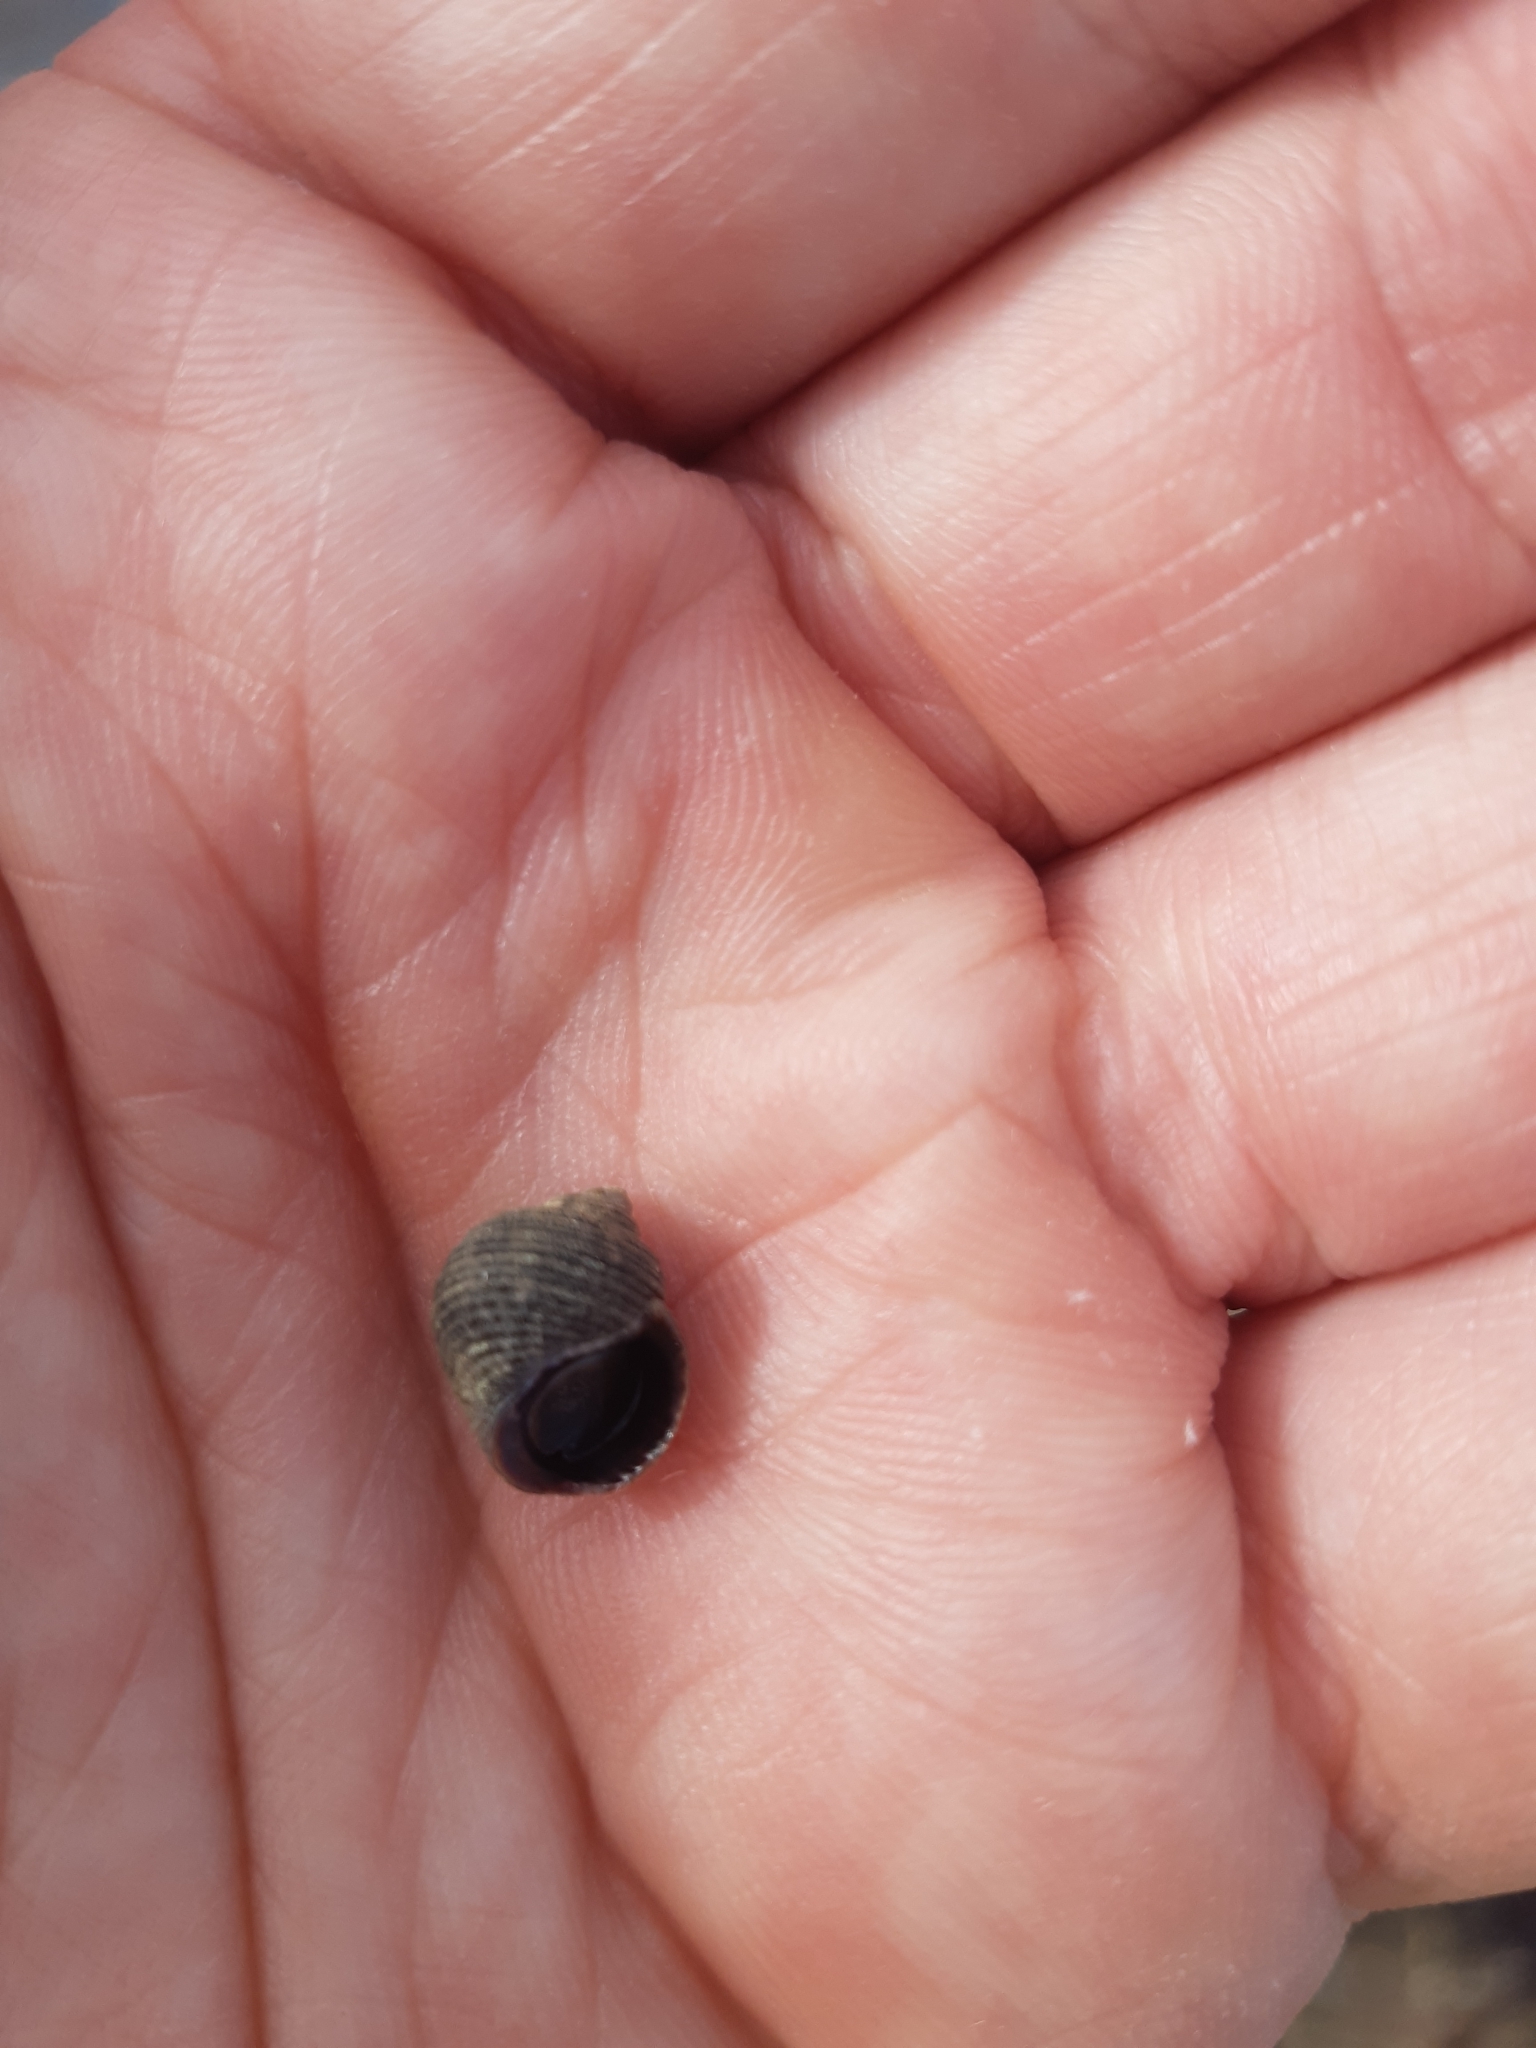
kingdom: Animalia
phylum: Mollusca
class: Gastropoda
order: Littorinimorpha
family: Littorinidae
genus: Littorina
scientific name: Littorina
